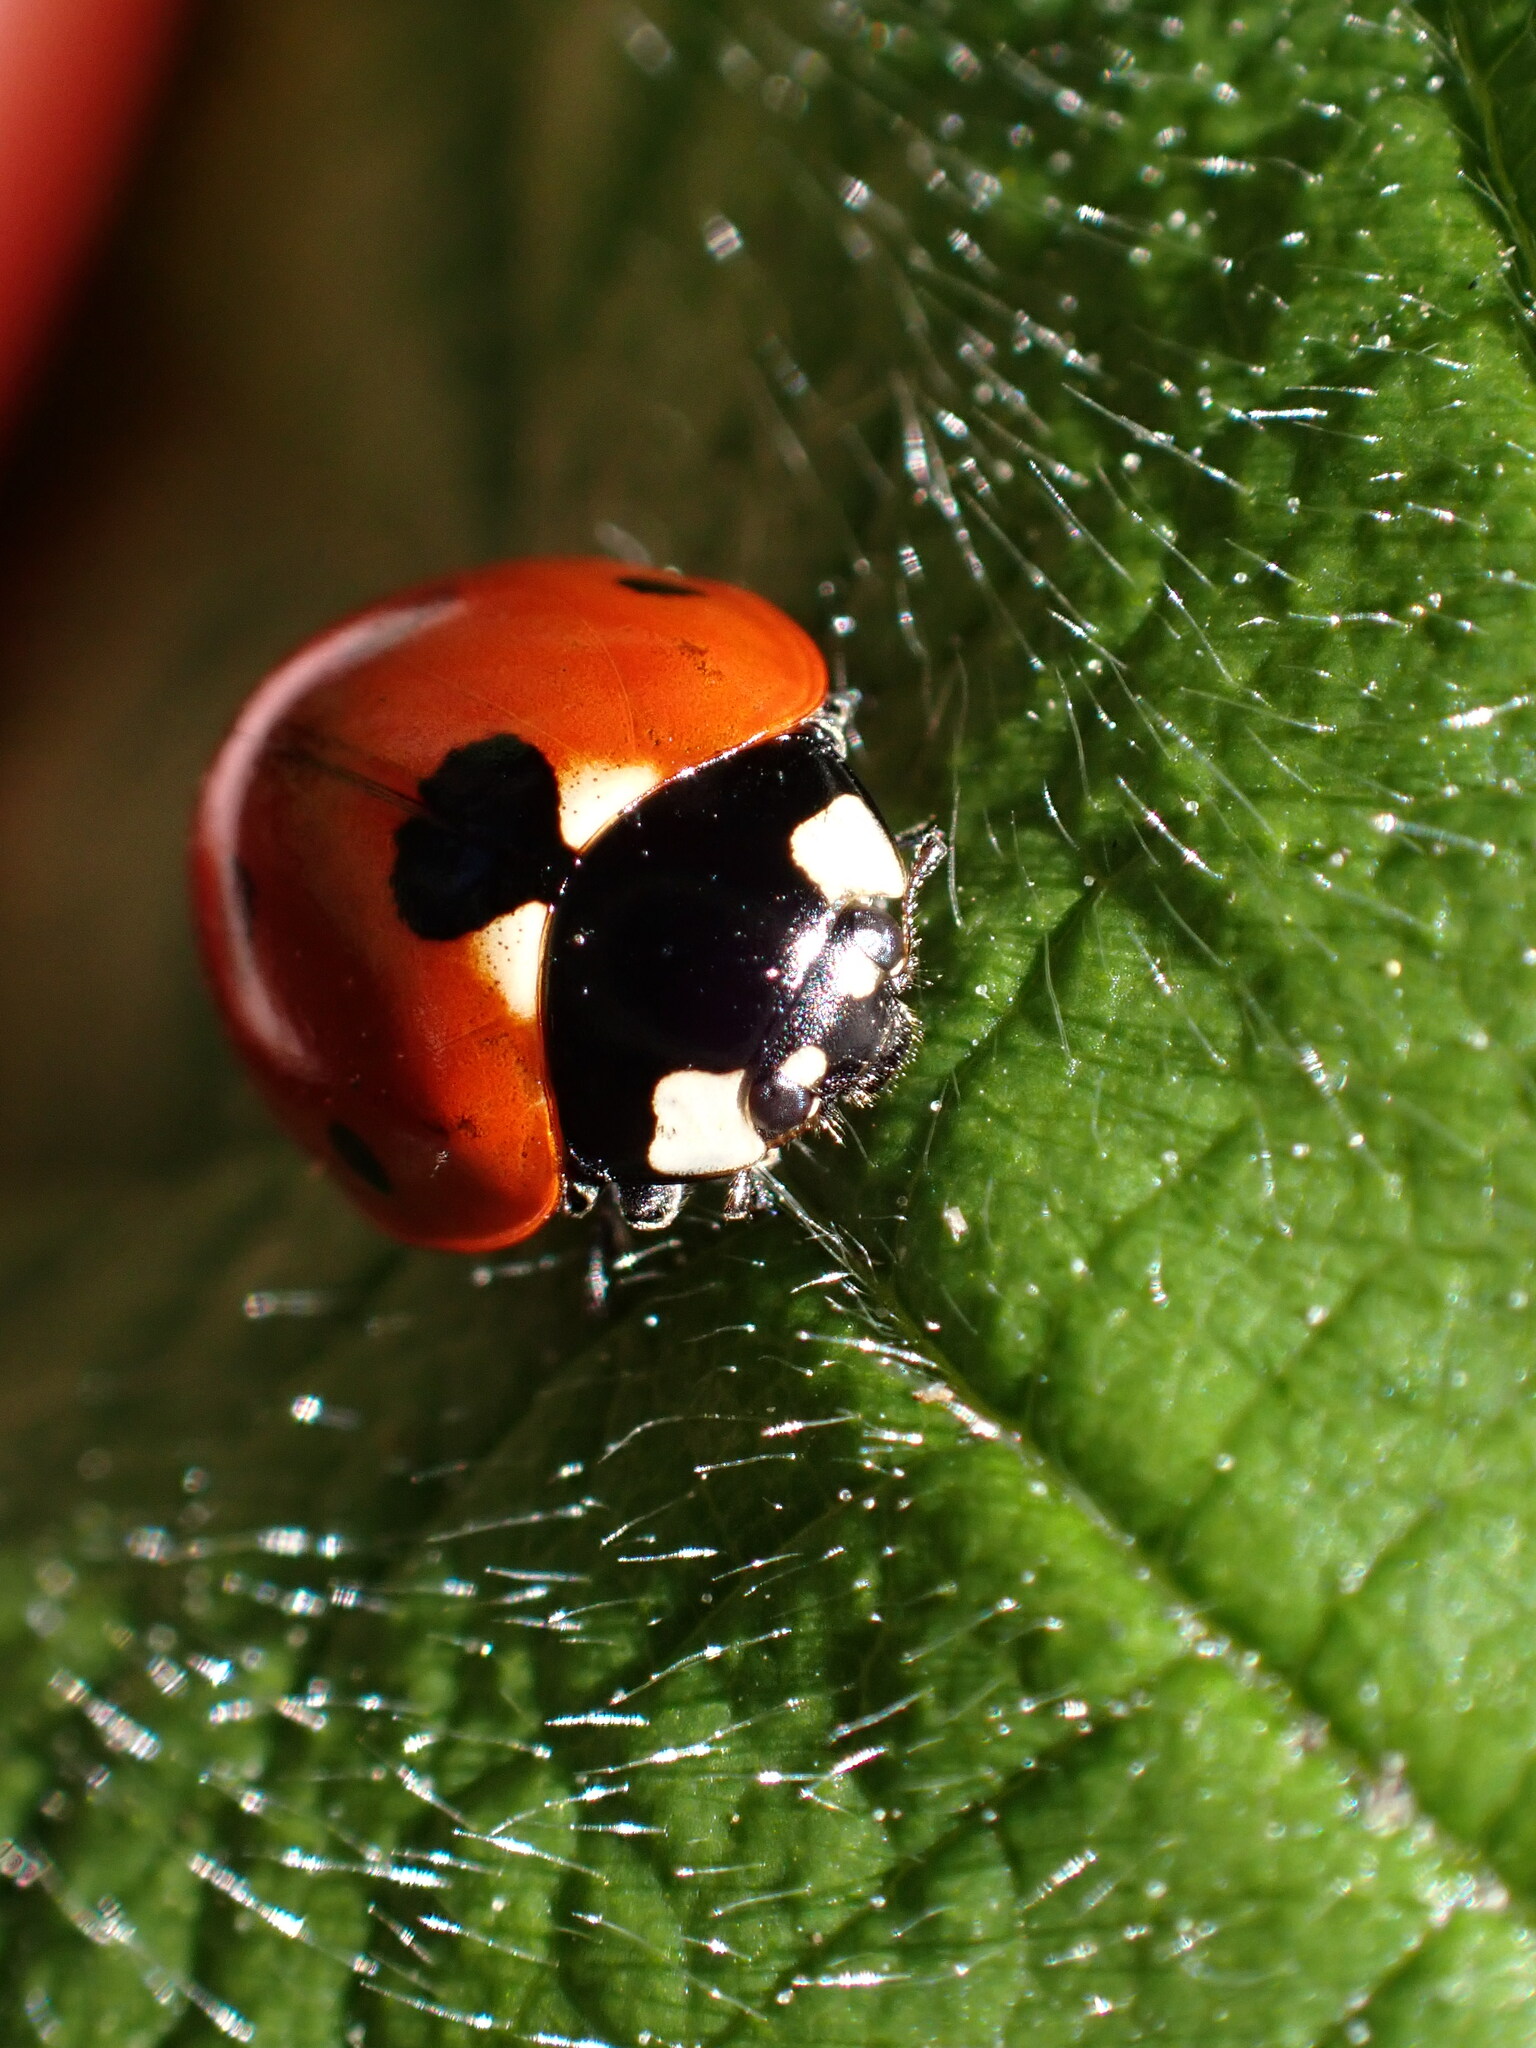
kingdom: Animalia
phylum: Arthropoda
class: Insecta
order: Coleoptera
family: Coccinellidae
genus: Coccinella
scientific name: Coccinella septempunctata
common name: Sevenspotted lady beetle
